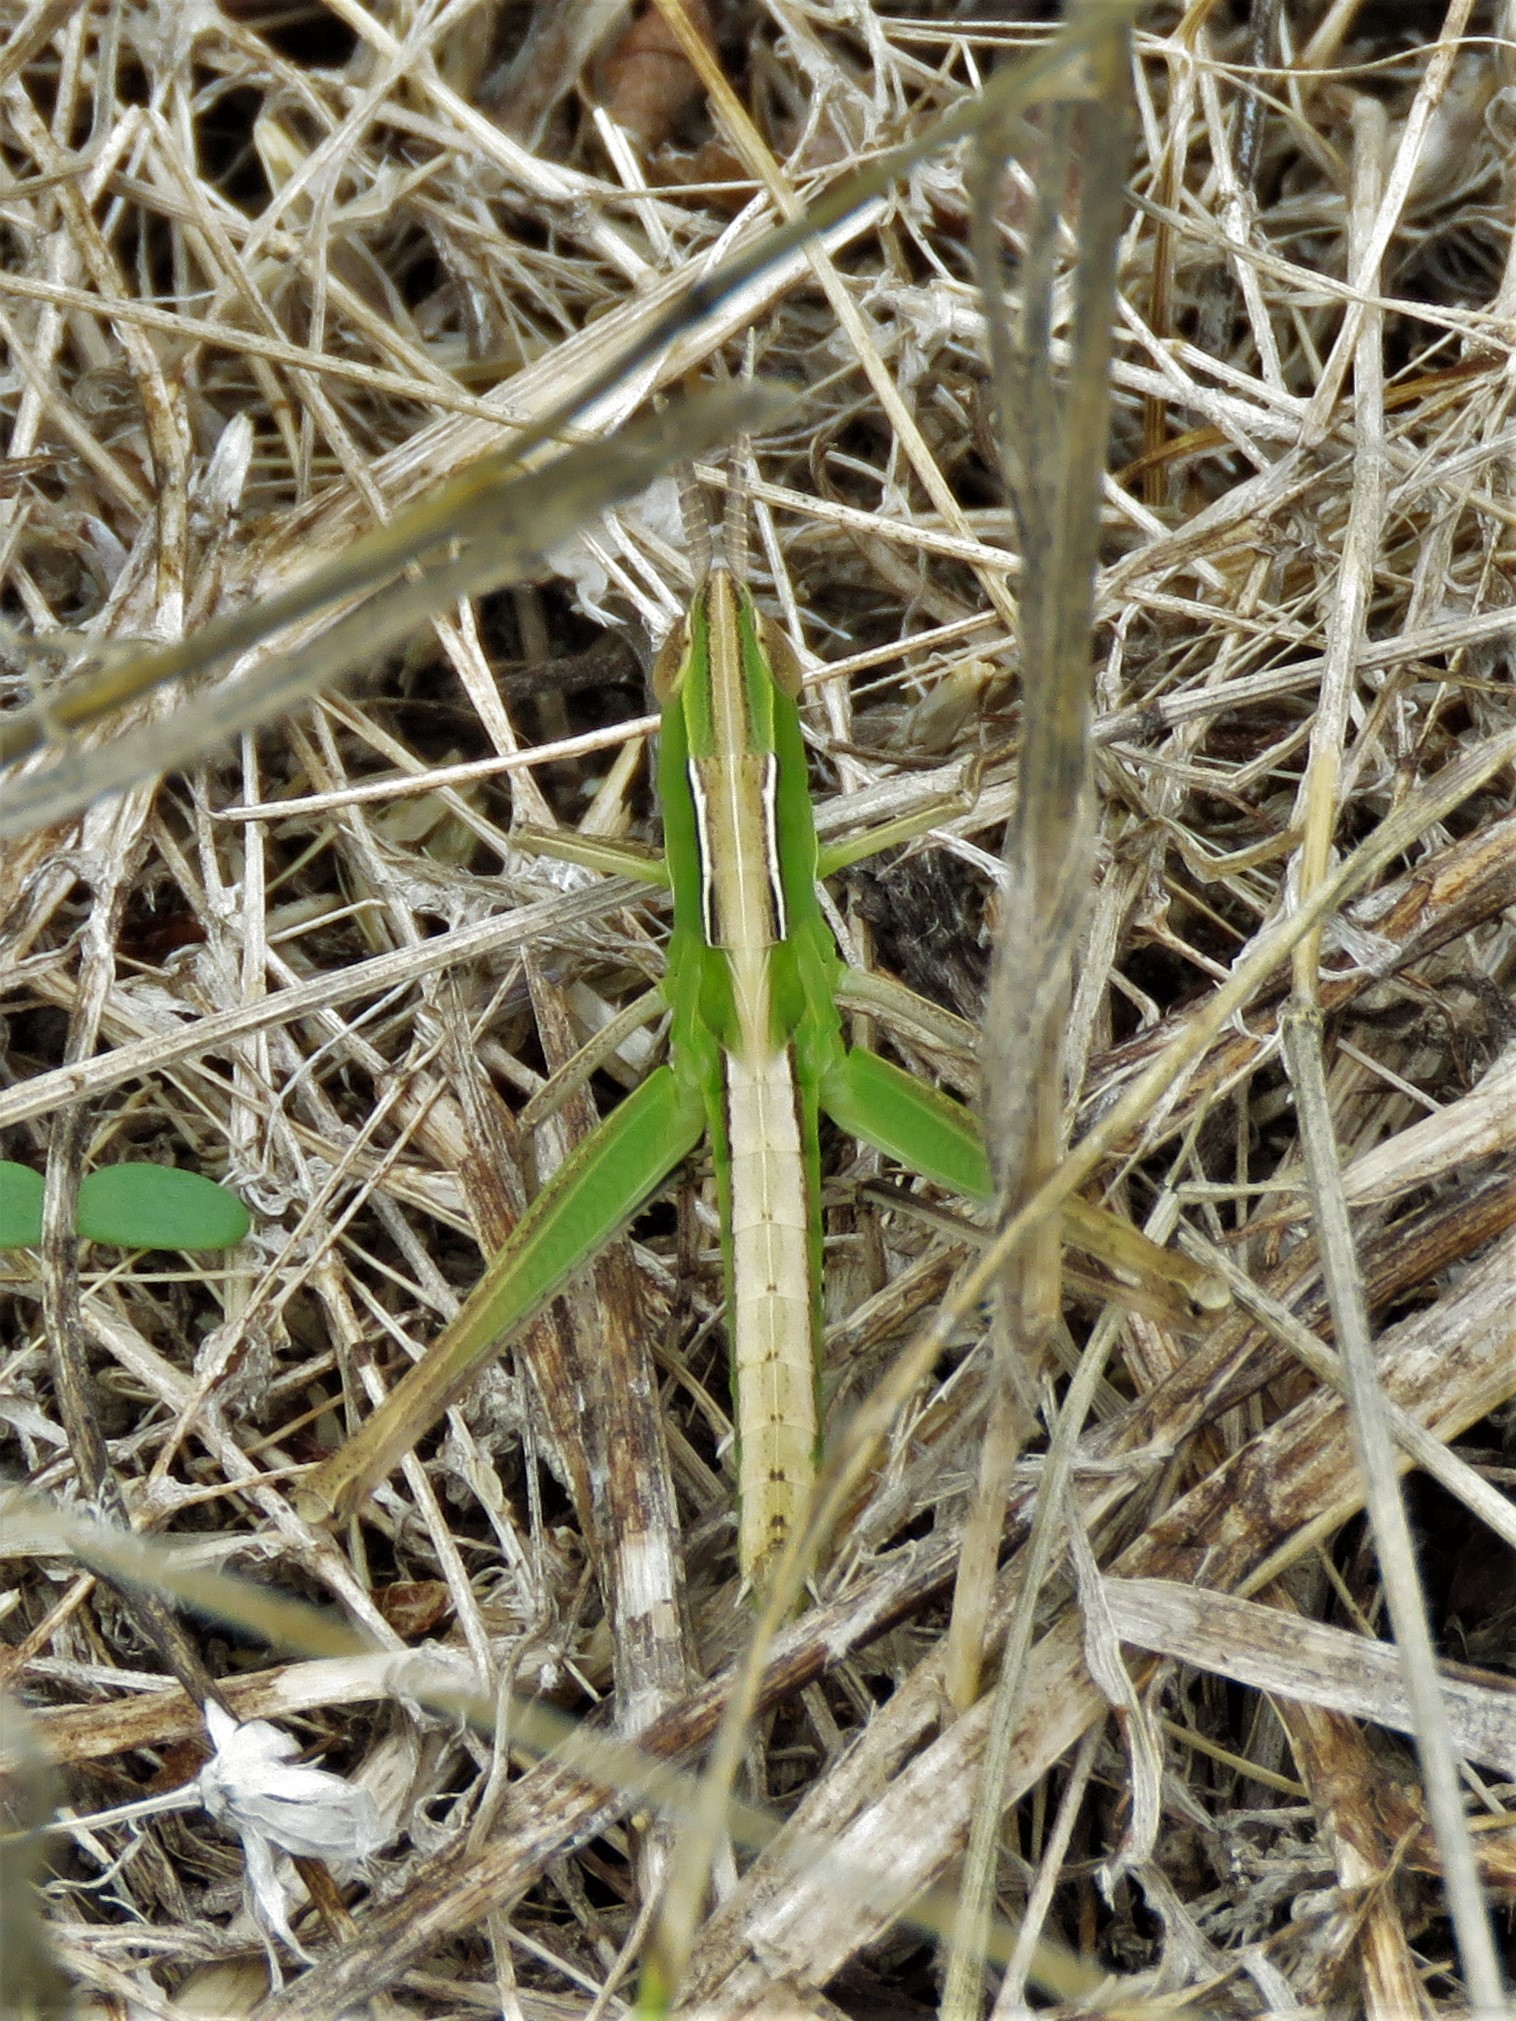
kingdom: Animalia
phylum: Arthropoda
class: Insecta
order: Orthoptera
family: Acrididae
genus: Syrbula
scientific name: Syrbula admirabilis
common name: Handsome grasshopper
